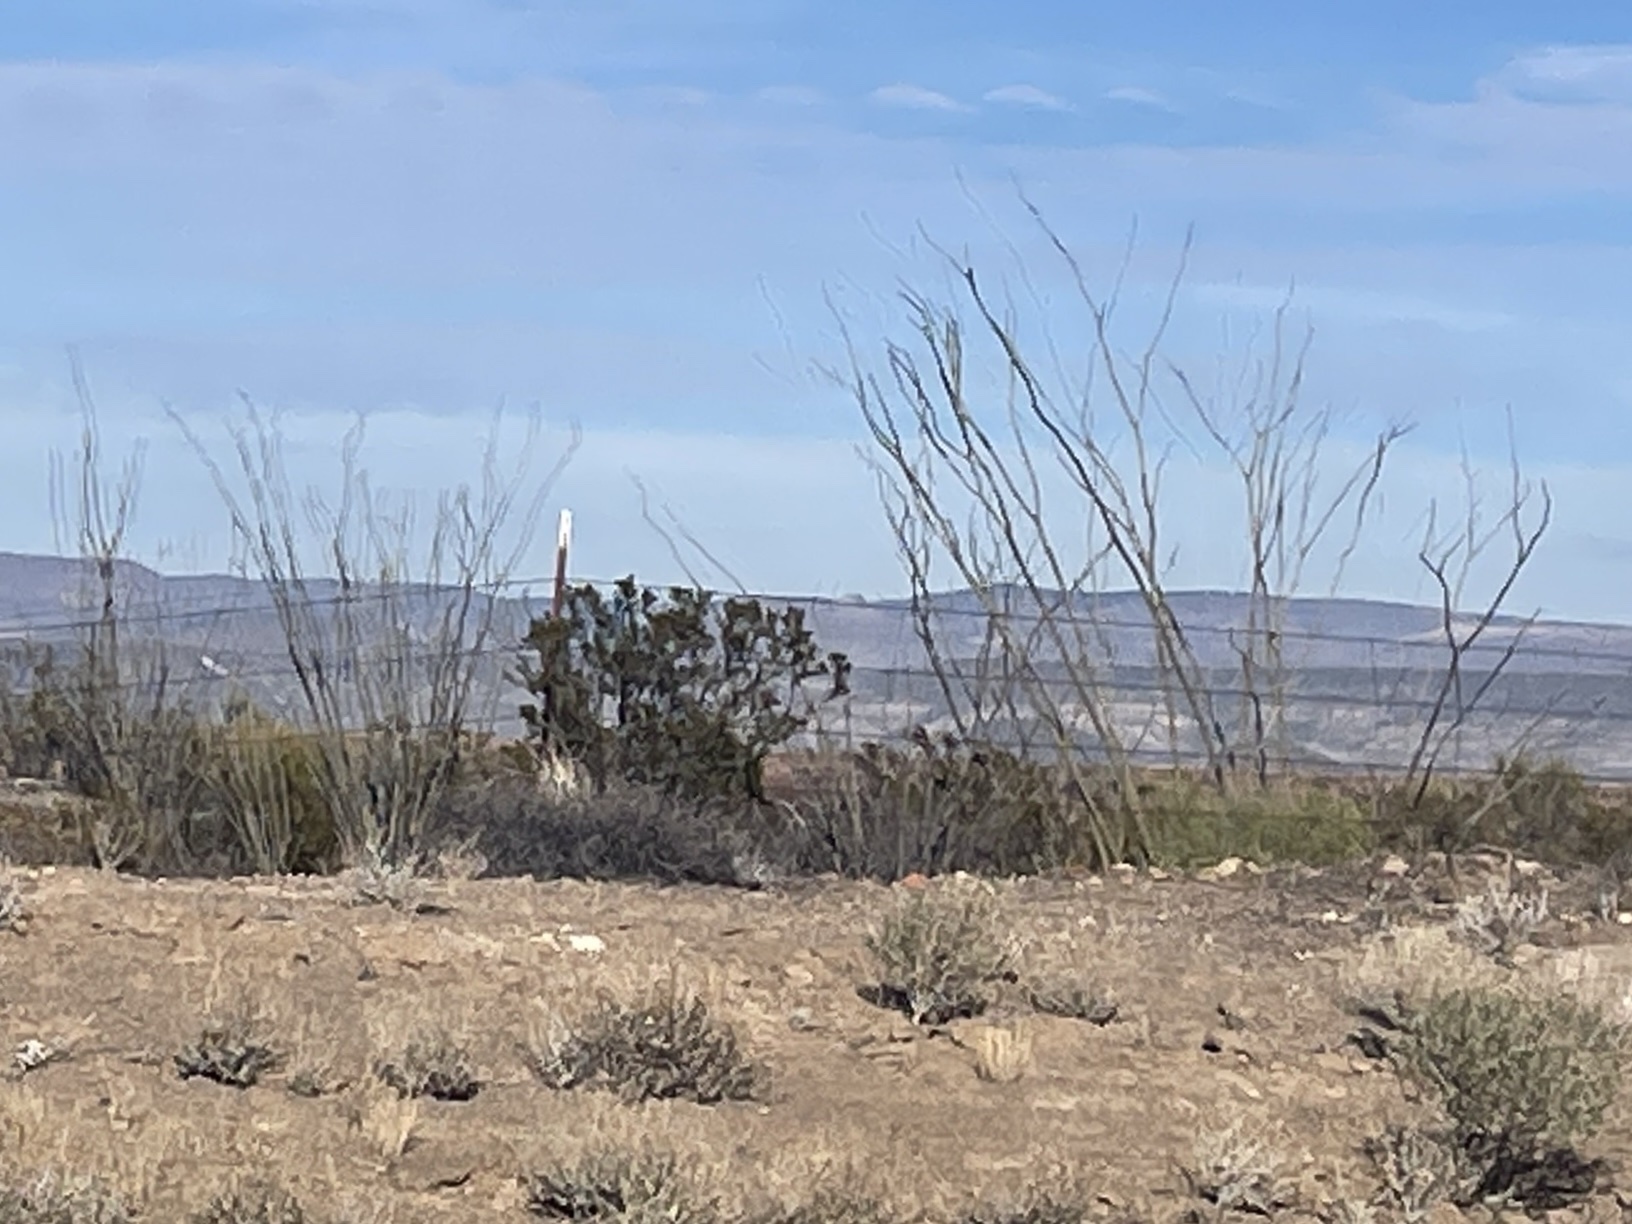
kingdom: Plantae
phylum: Tracheophyta
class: Magnoliopsida
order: Ericales
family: Fouquieriaceae
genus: Fouquieria
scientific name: Fouquieria splendens
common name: Vine-cactus
